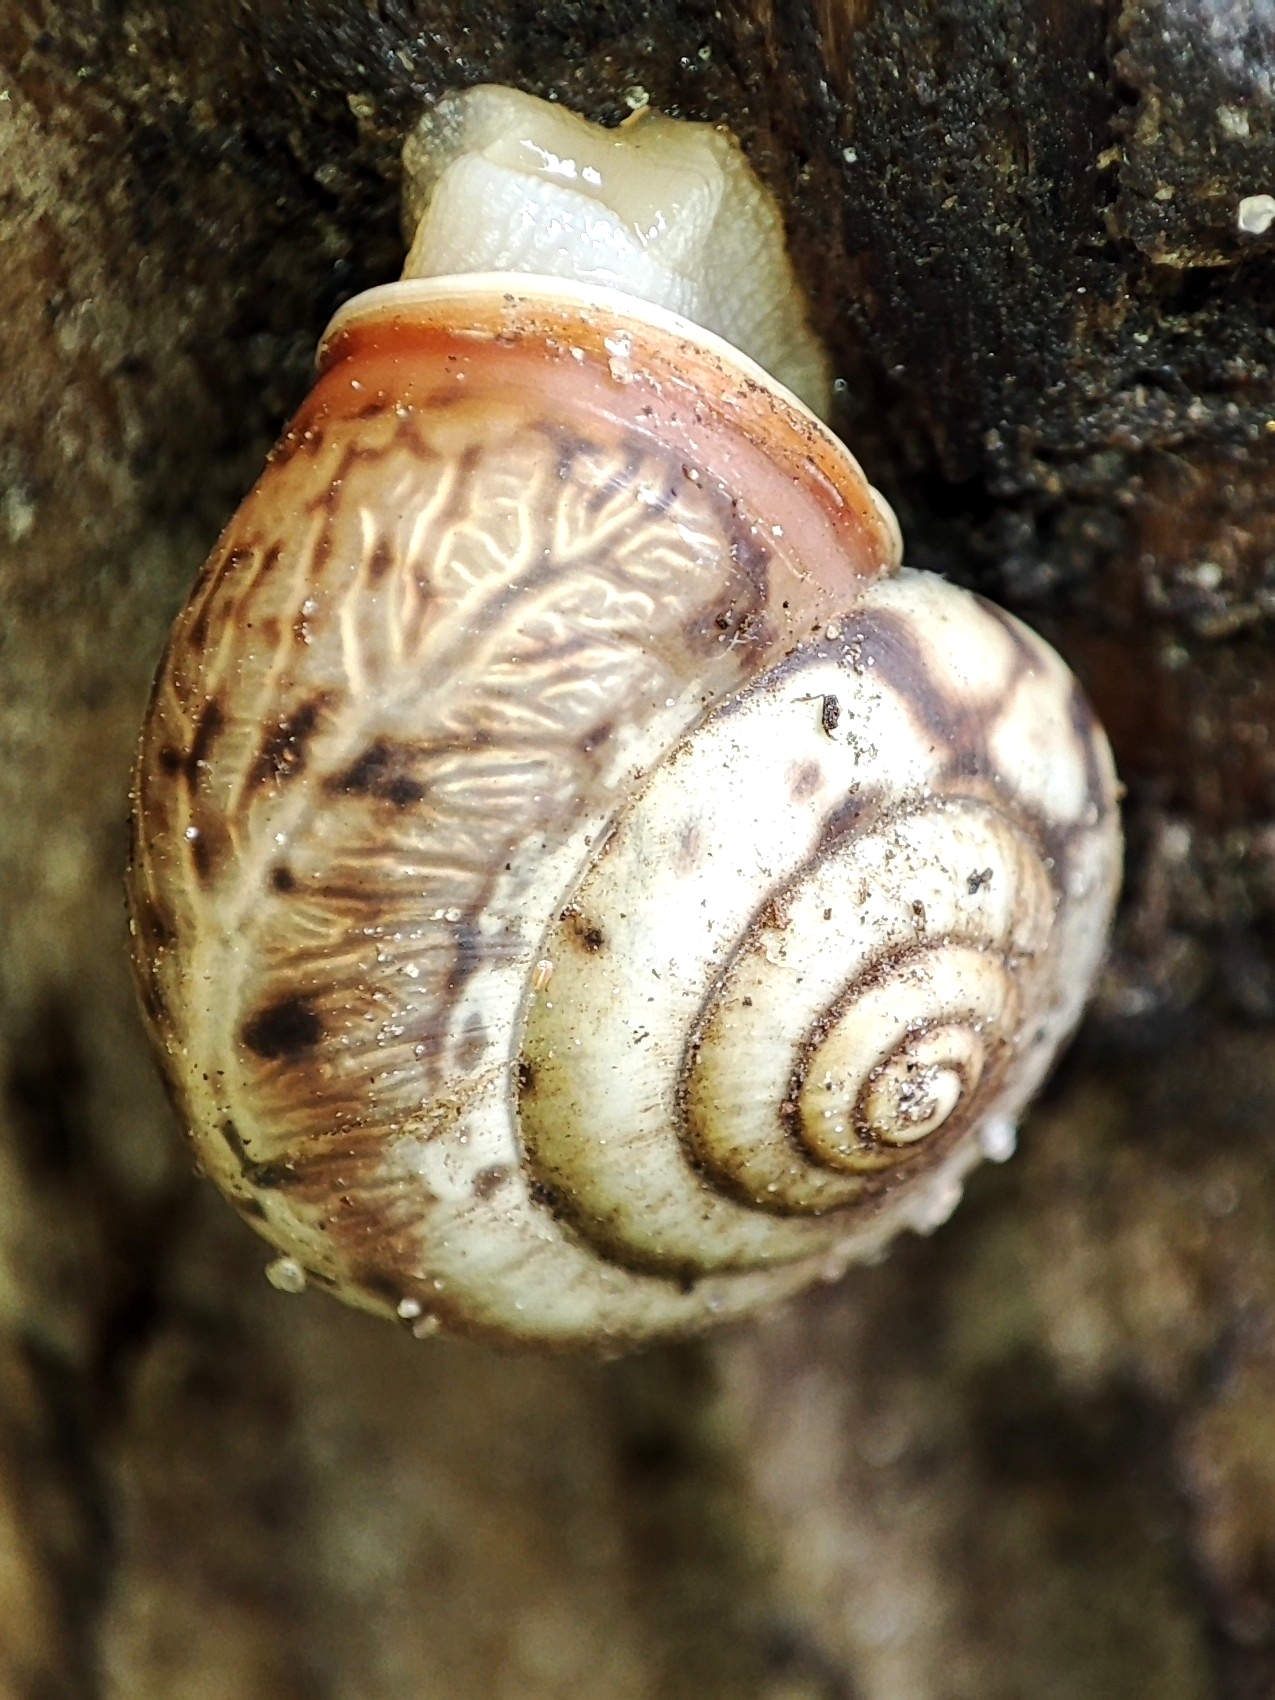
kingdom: Animalia
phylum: Mollusca
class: Gastropoda
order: Stylommatophora
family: Hygromiidae
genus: Monacha
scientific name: Monacha cartusiana
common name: Carthusian snail
